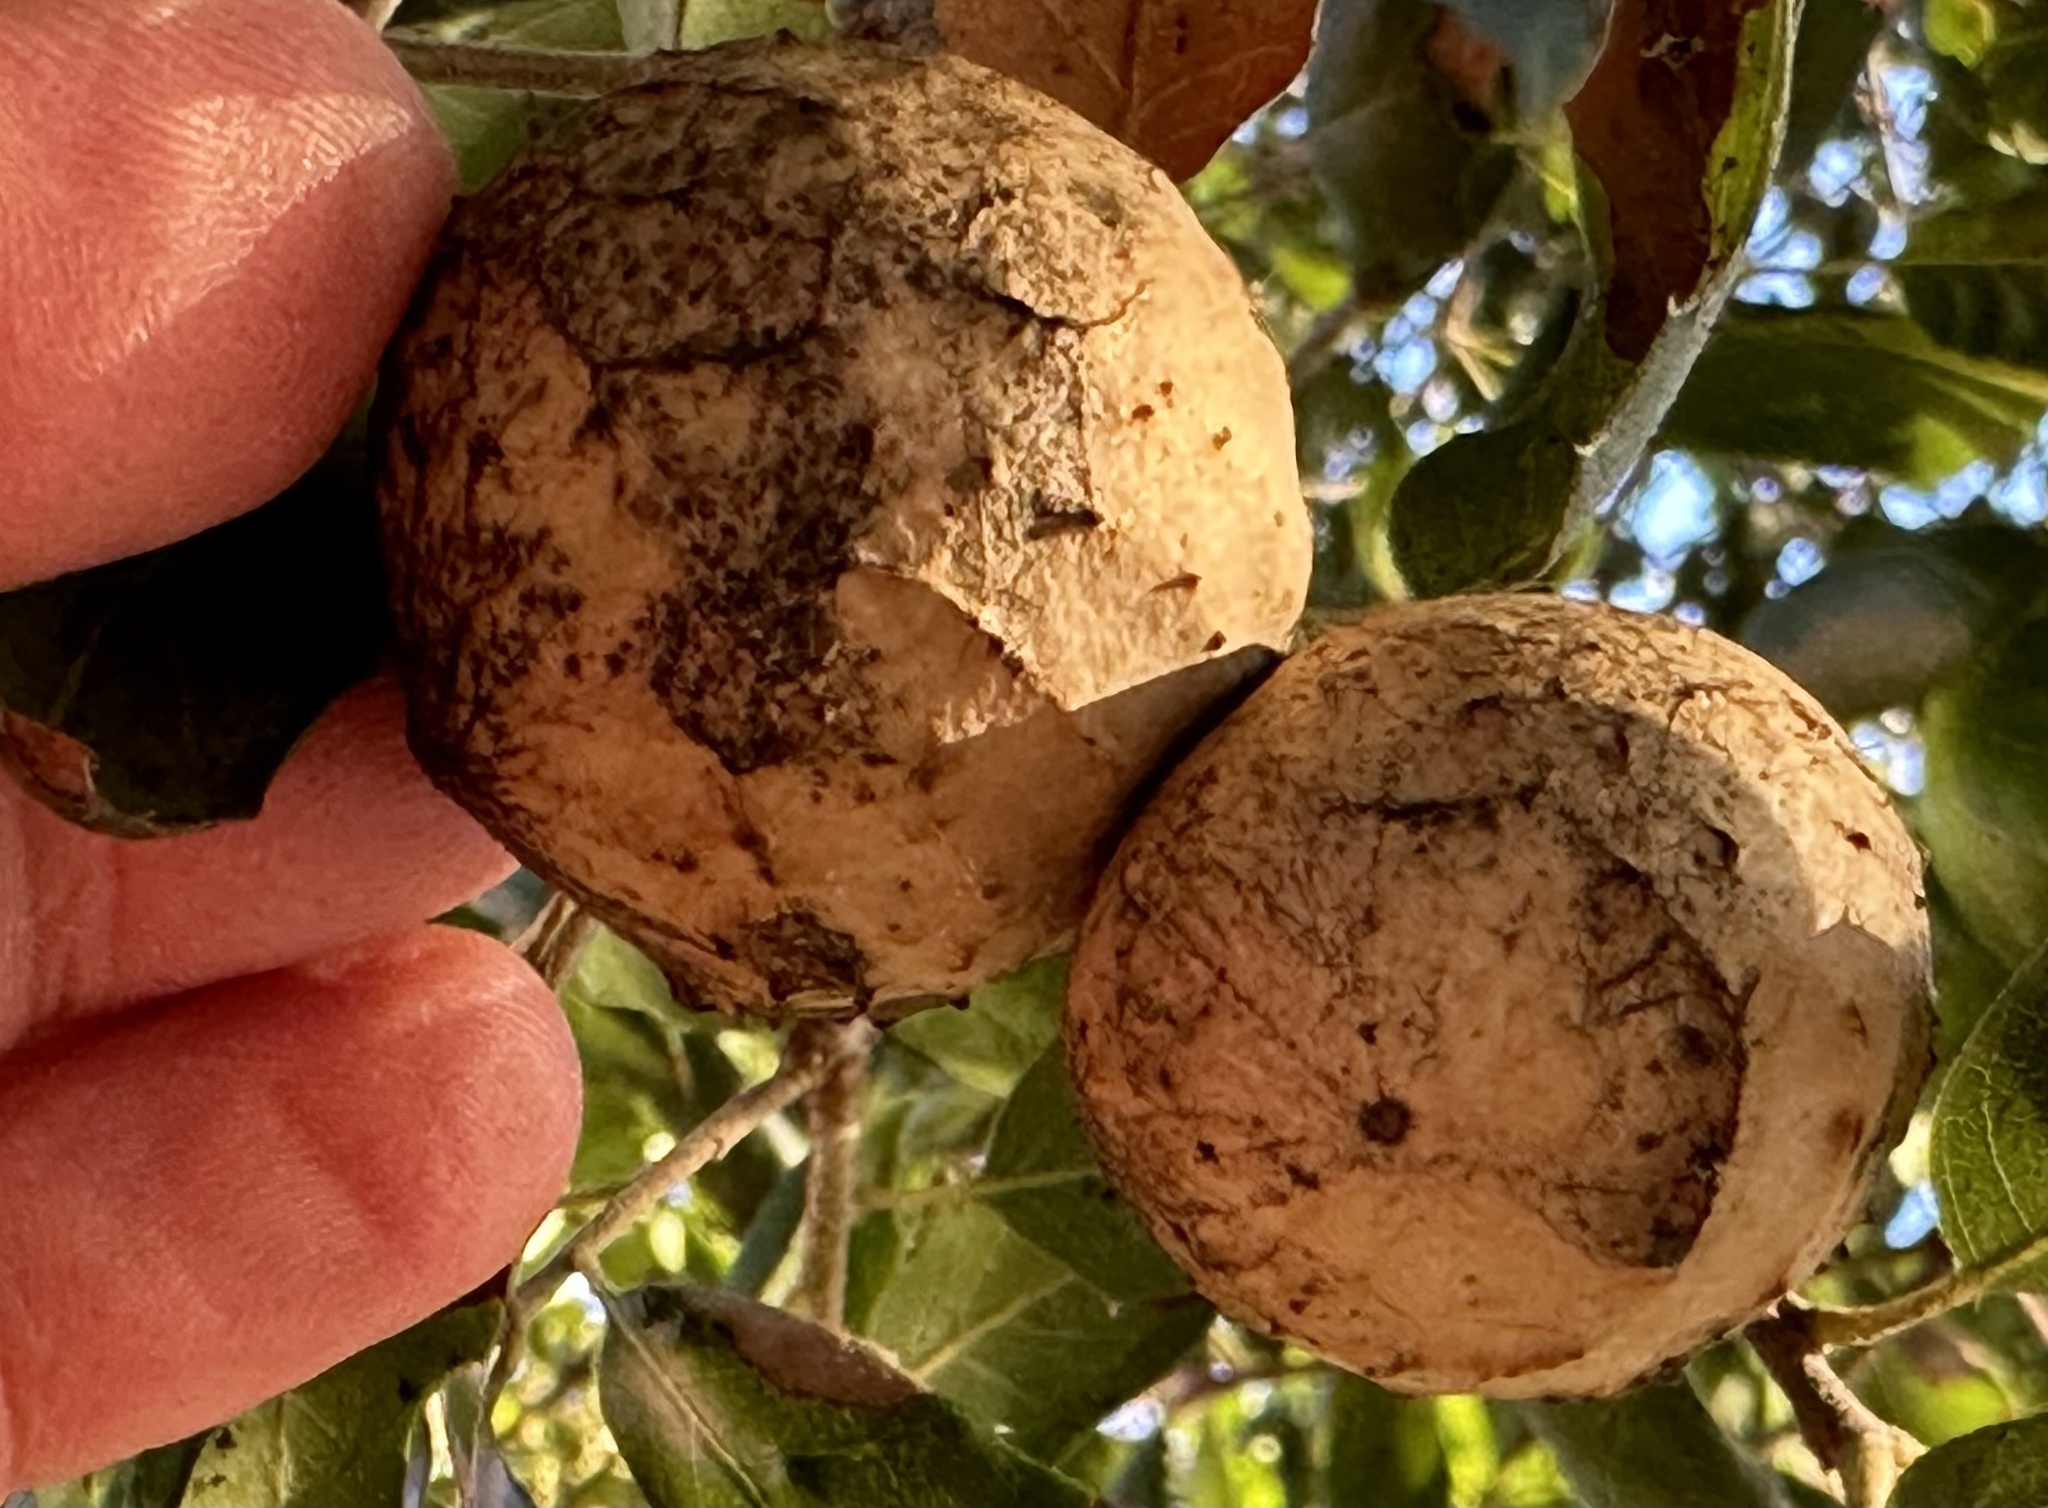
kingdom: Animalia
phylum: Arthropoda
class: Insecta
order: Hymenoptera
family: Cynipidae
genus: Amphibolips
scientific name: Amphibolips quercuspomiformis
